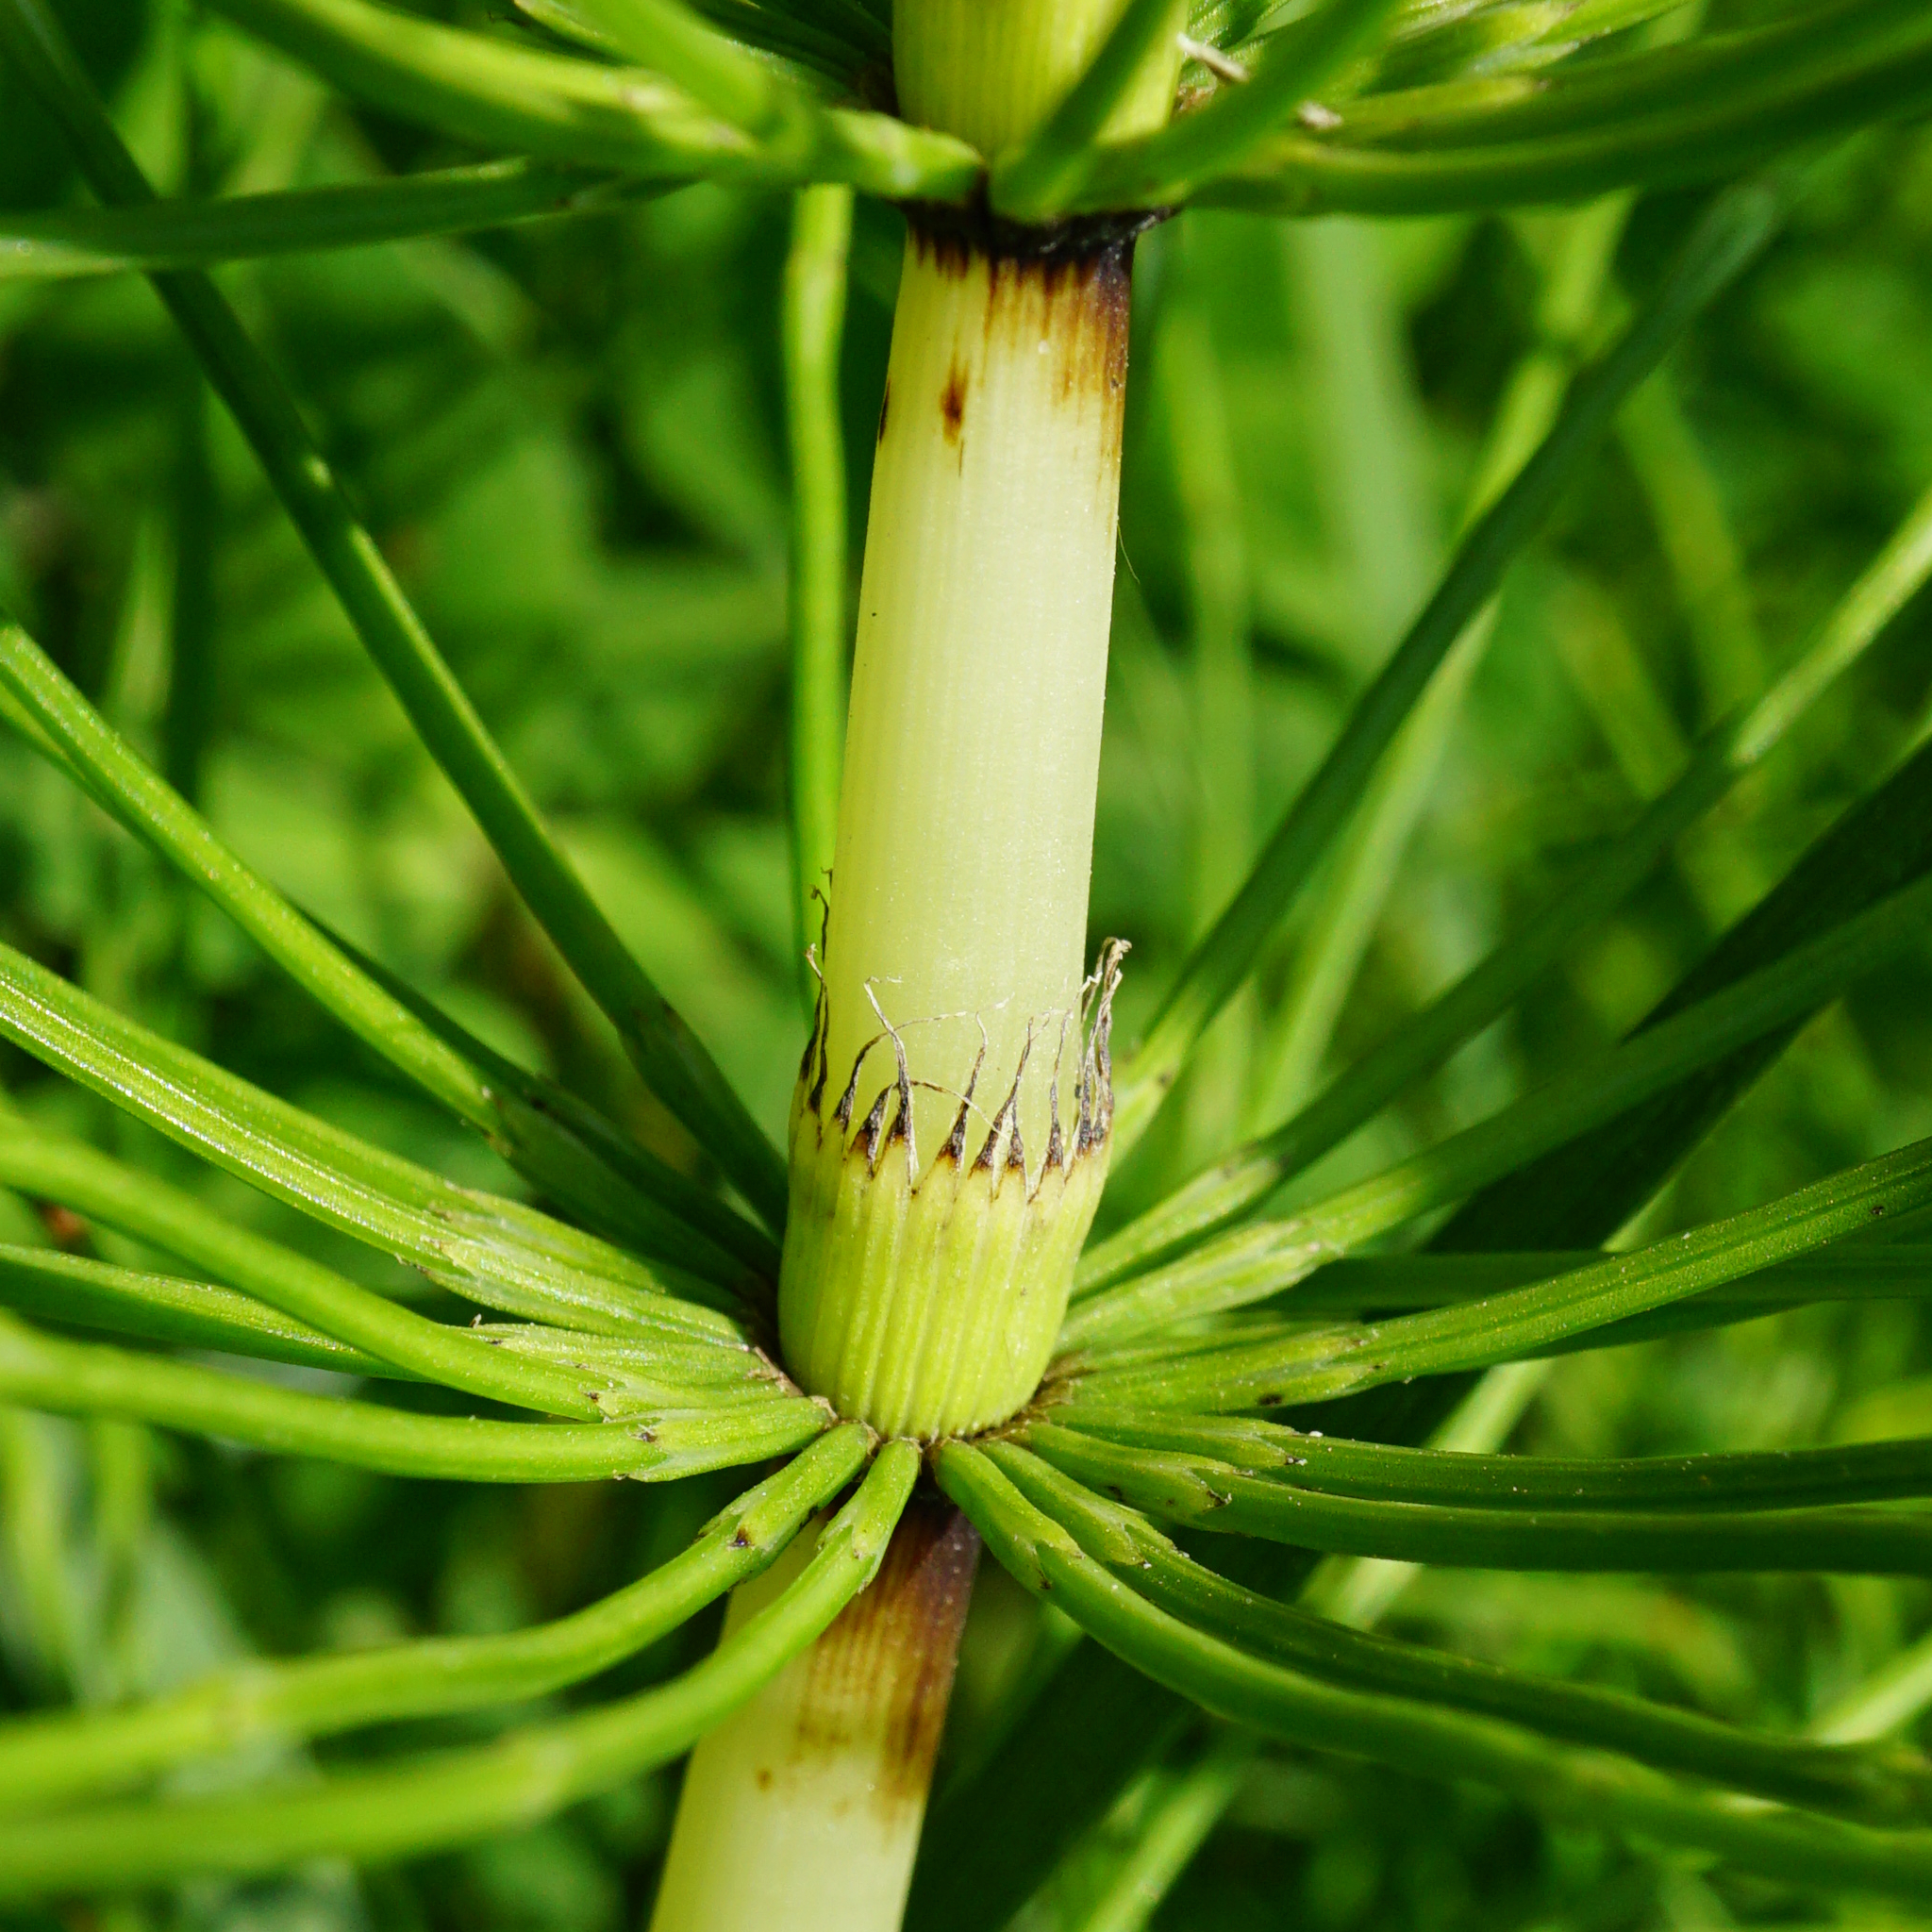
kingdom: Plantae
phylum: Tracheophyta
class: Polypodiopsida
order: Equisetales
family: Equisetaceae
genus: Equisetum
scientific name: Equisetum telmateia
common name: Great horsetail
